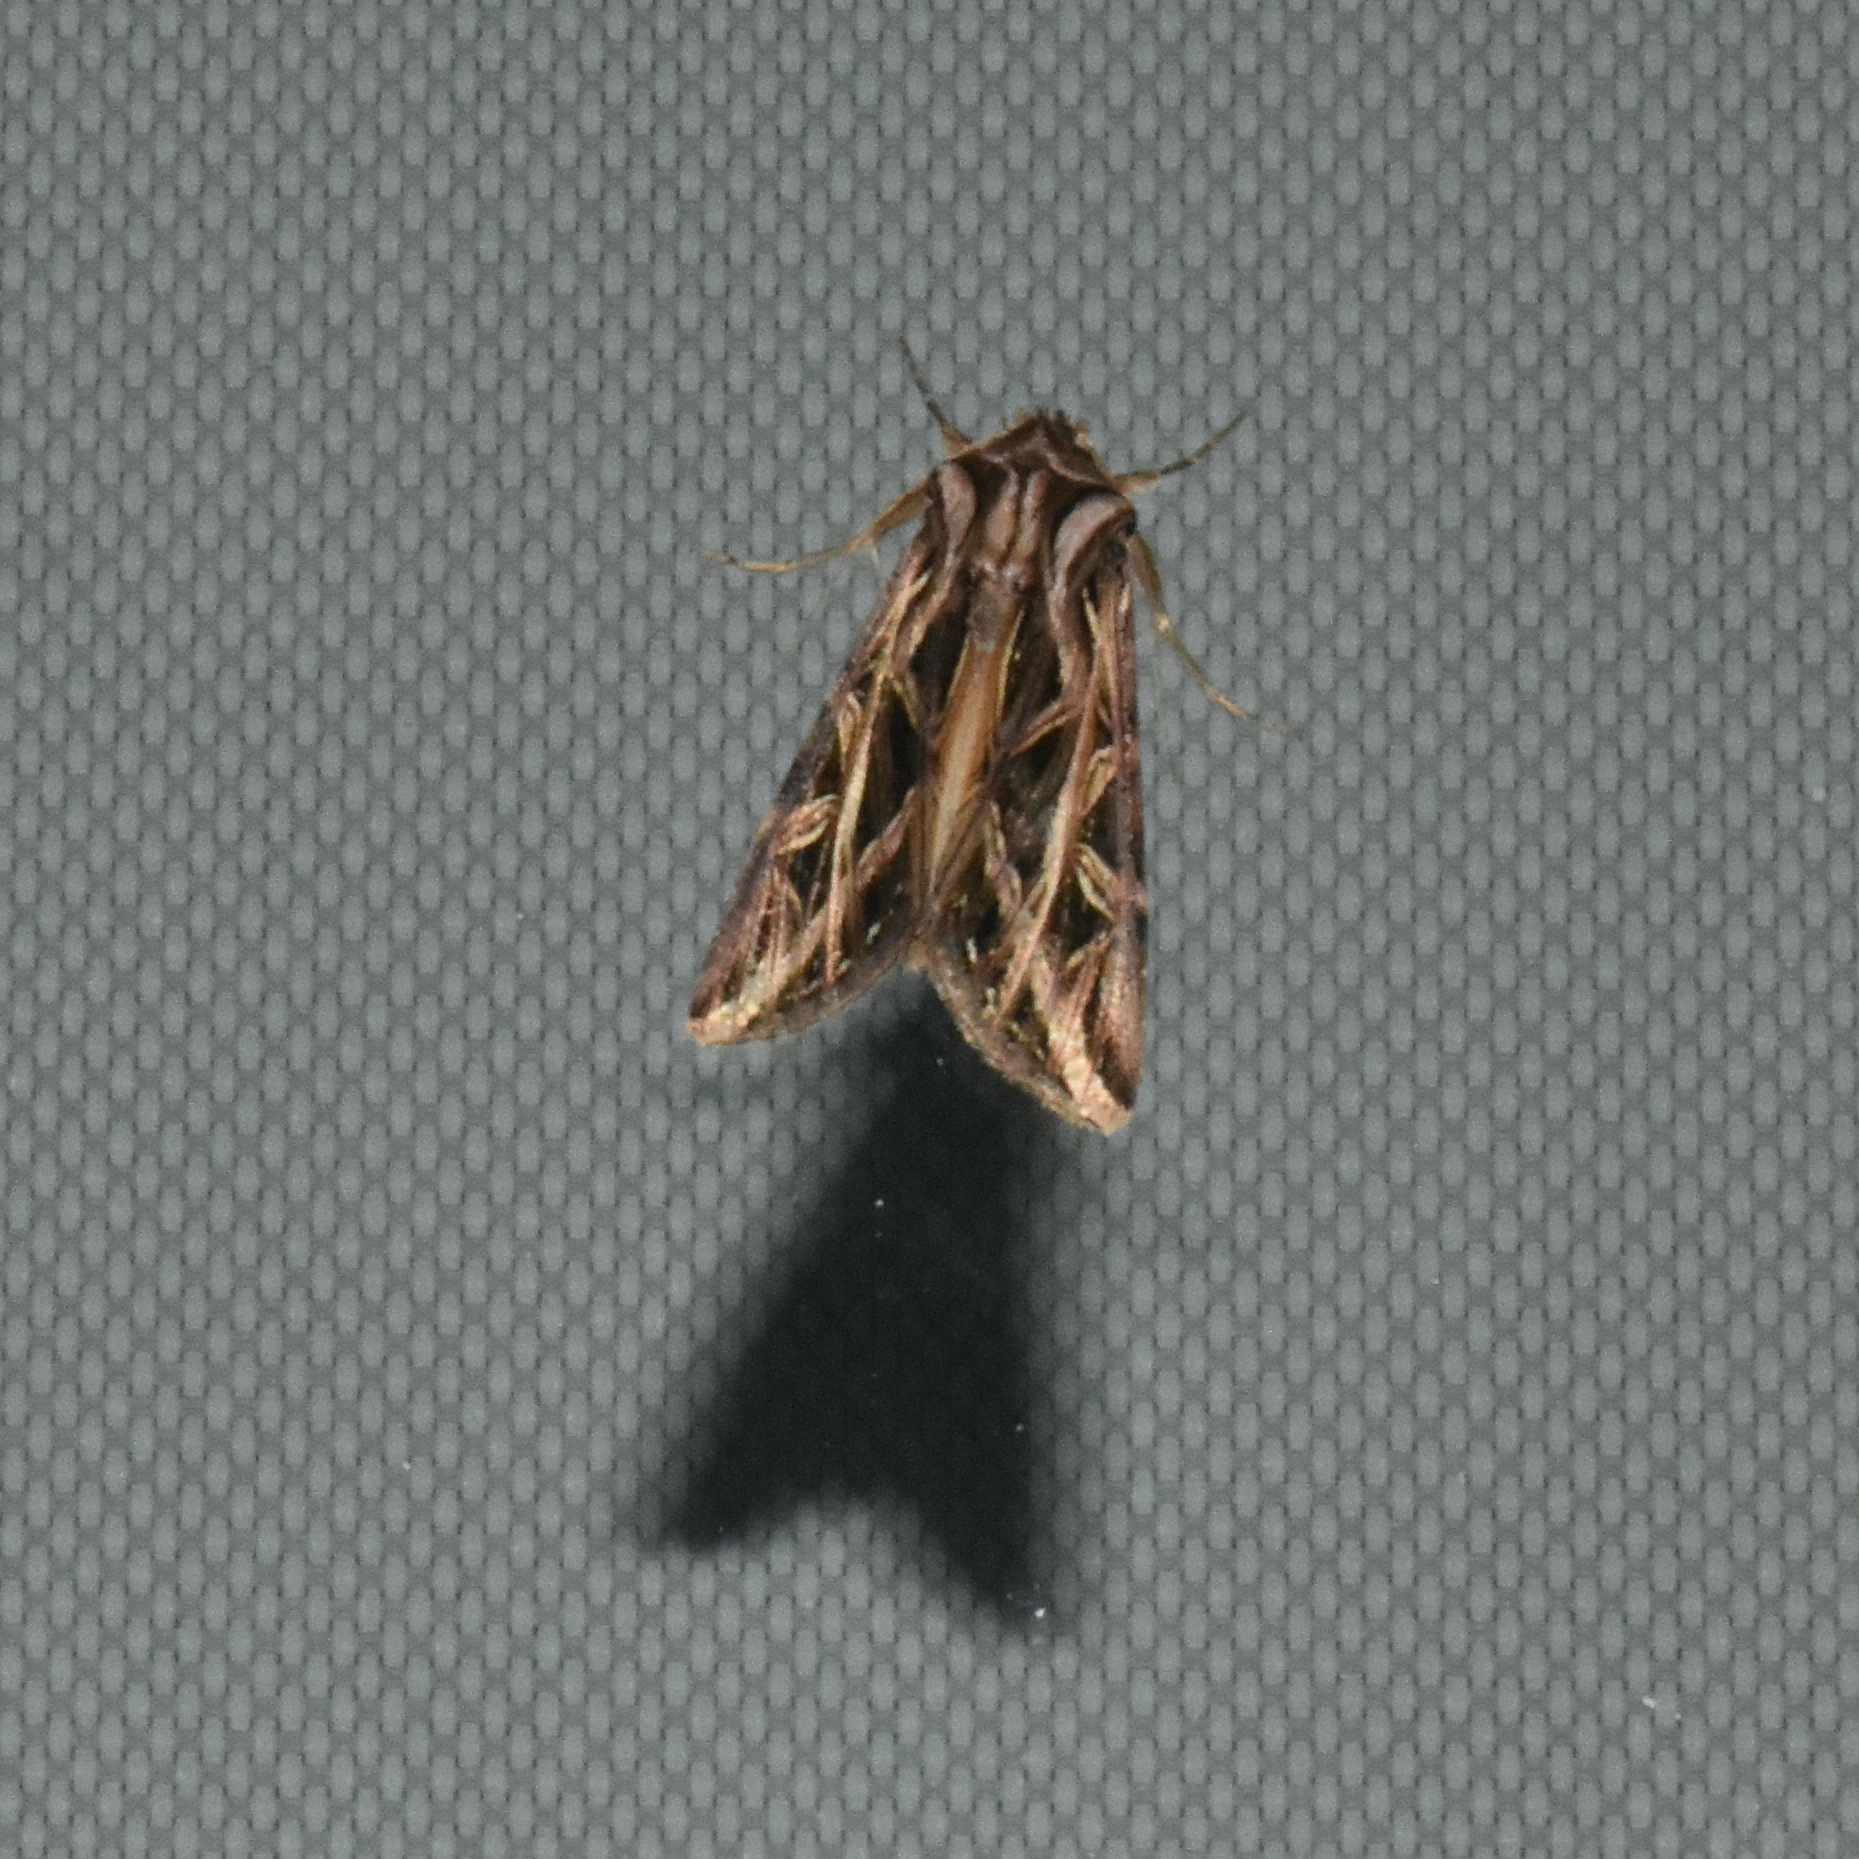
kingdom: Animalia
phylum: Arthropoda
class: Insecta
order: Lepidoptera
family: Noctuidae
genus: Dargida
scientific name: Dargida procinctus
